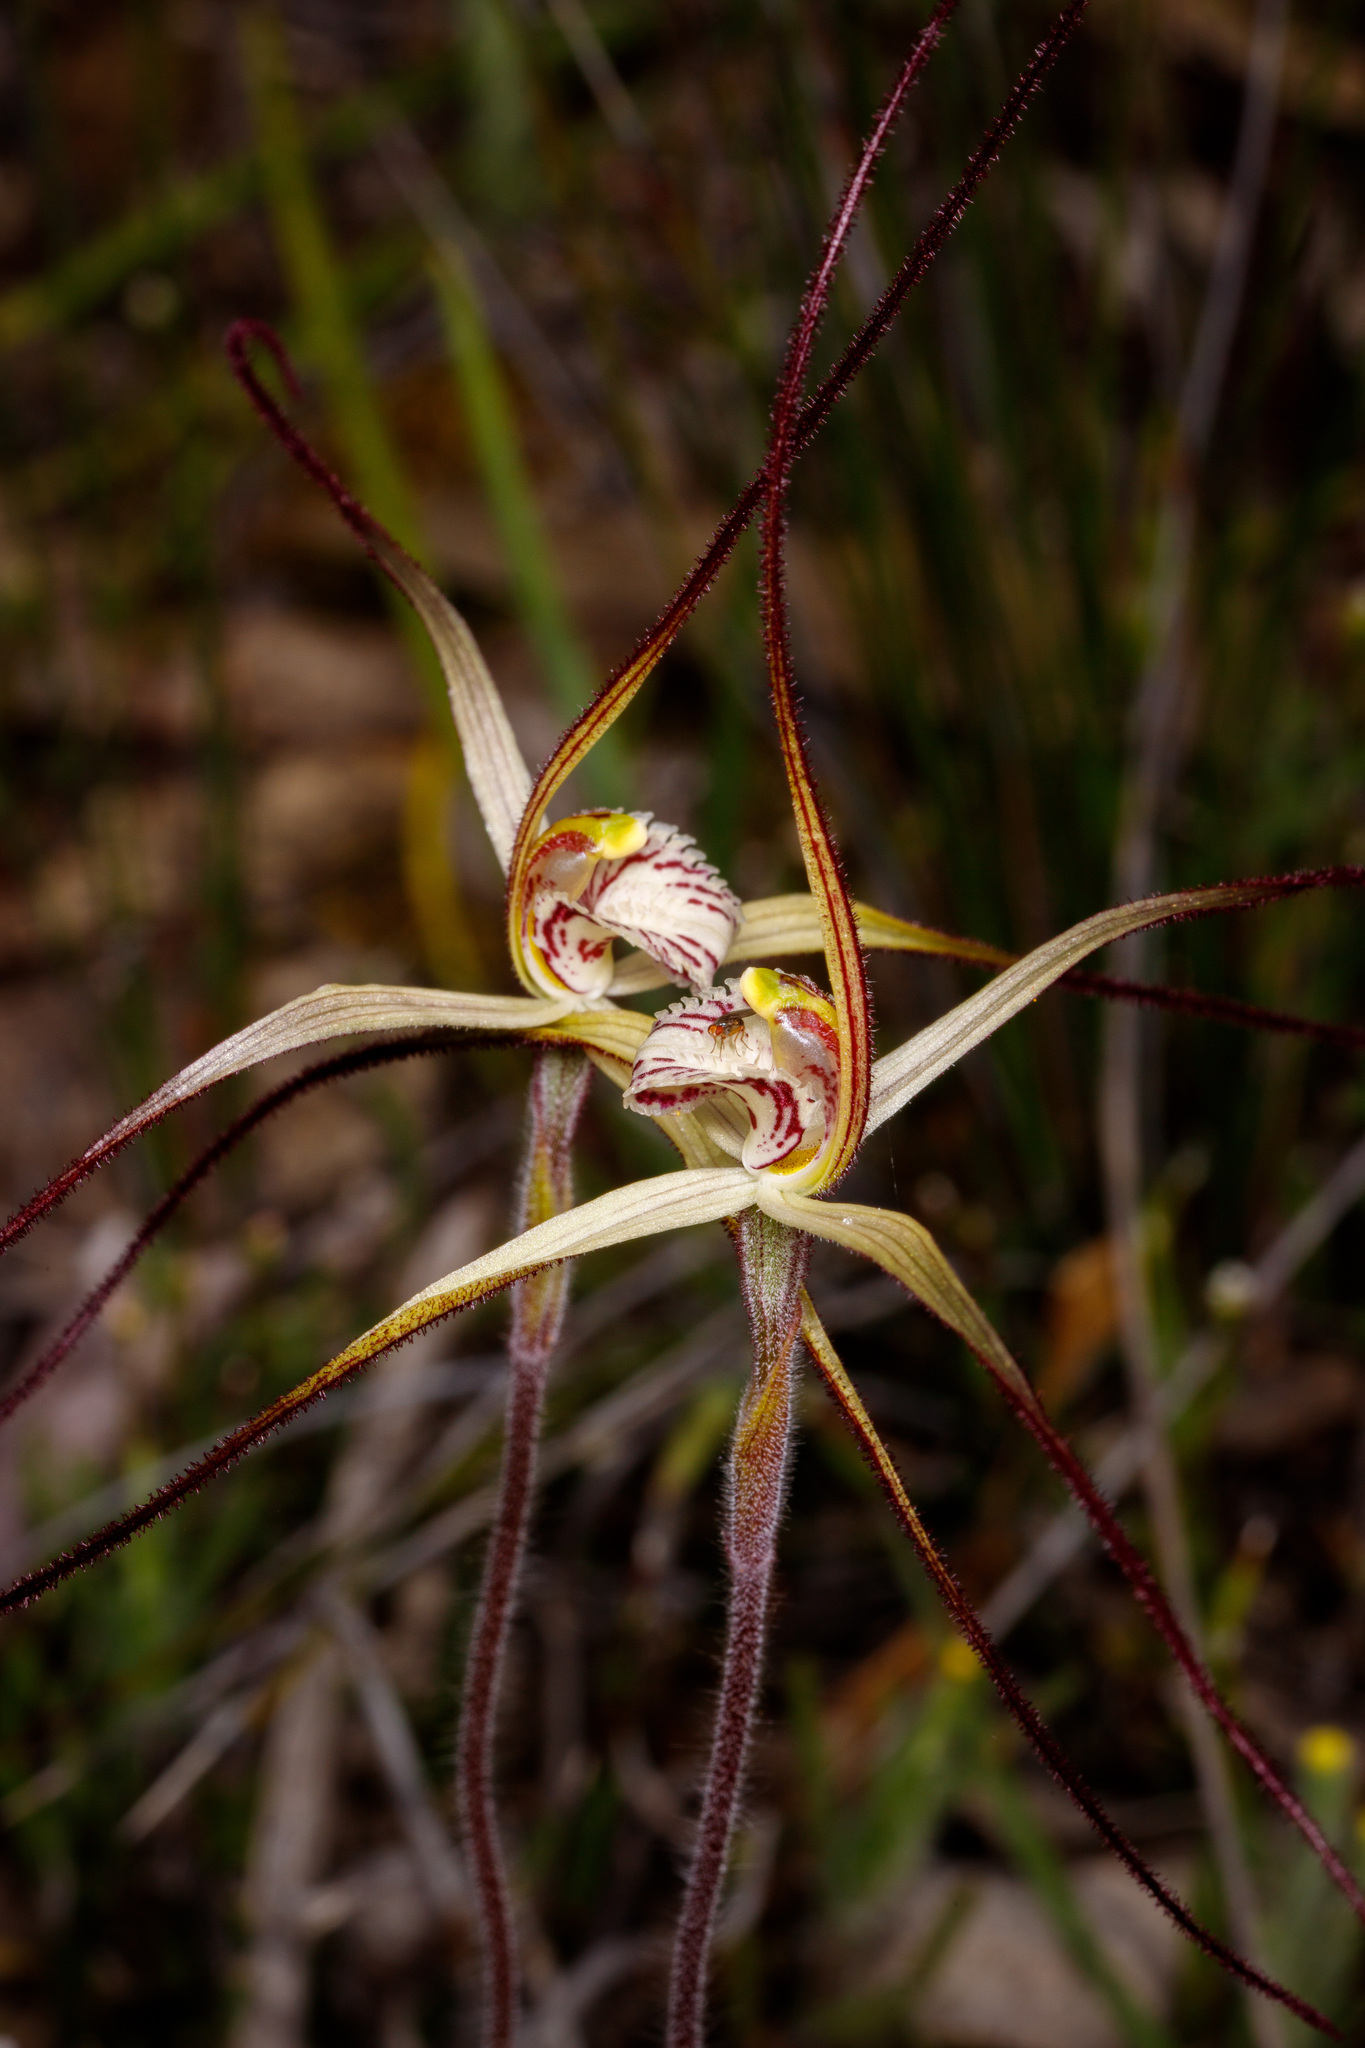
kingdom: Plantae
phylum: Tracheophyta
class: Liliopsida
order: Asparagales
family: Orchidaceae
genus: Caladenia
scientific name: Caladenia polychroma
